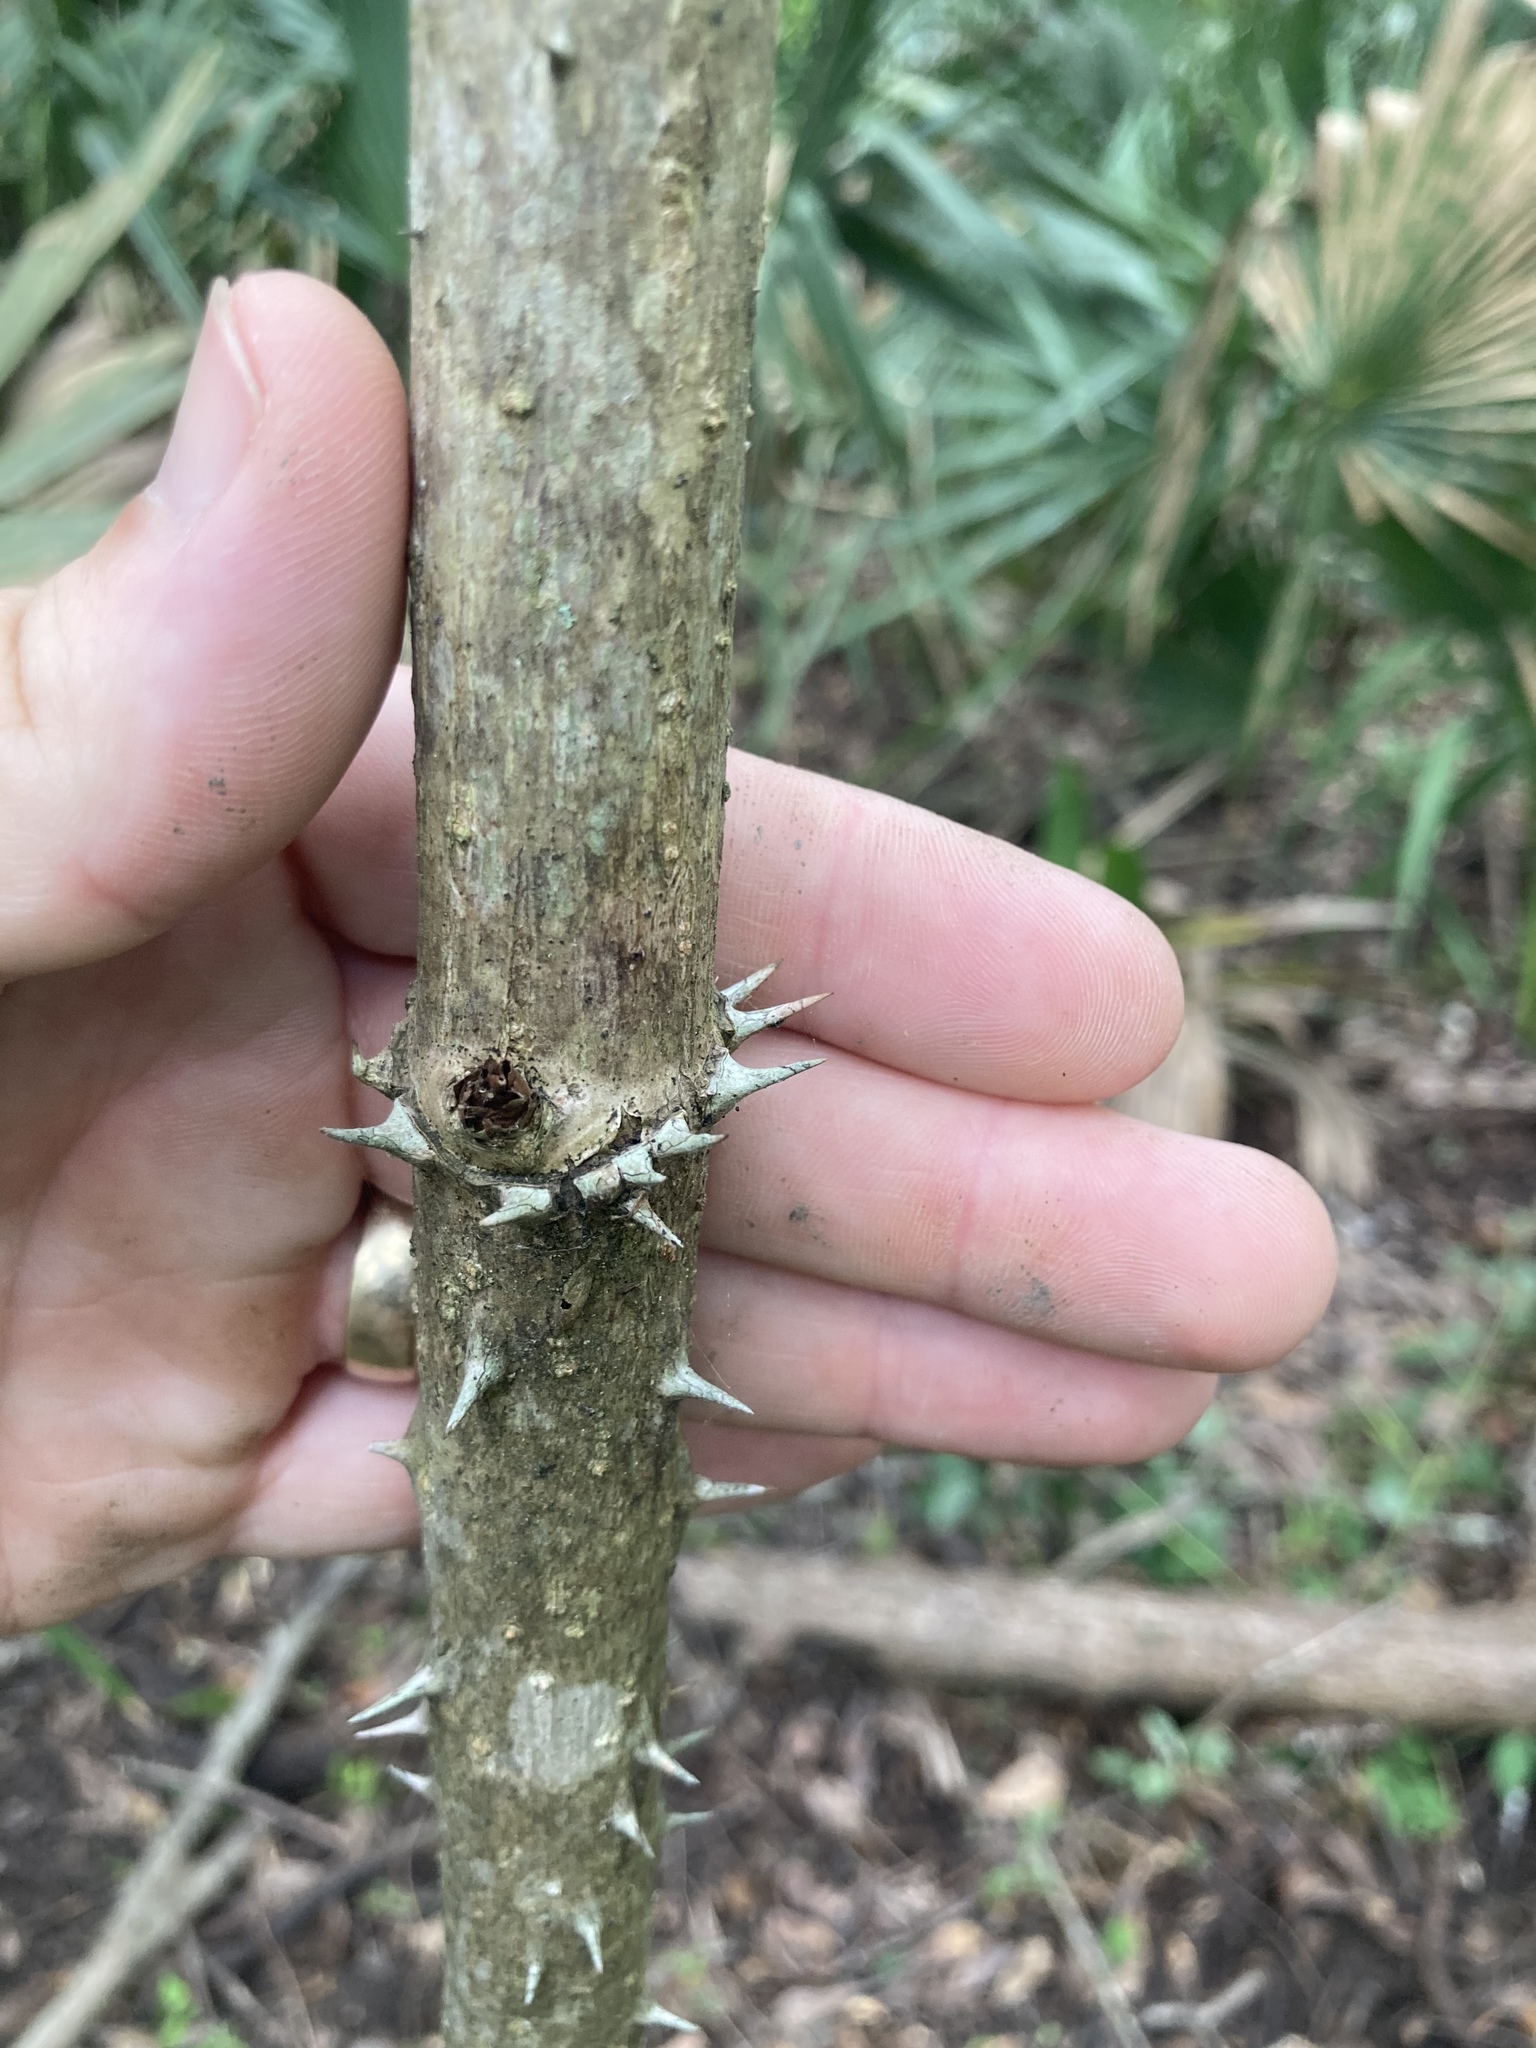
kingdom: Plantae
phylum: Tracheophyta
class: Magnoliopsida
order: Apiales
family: Araliaceae
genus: Aralia
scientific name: Aralia spinosa
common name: Hercules'-club
